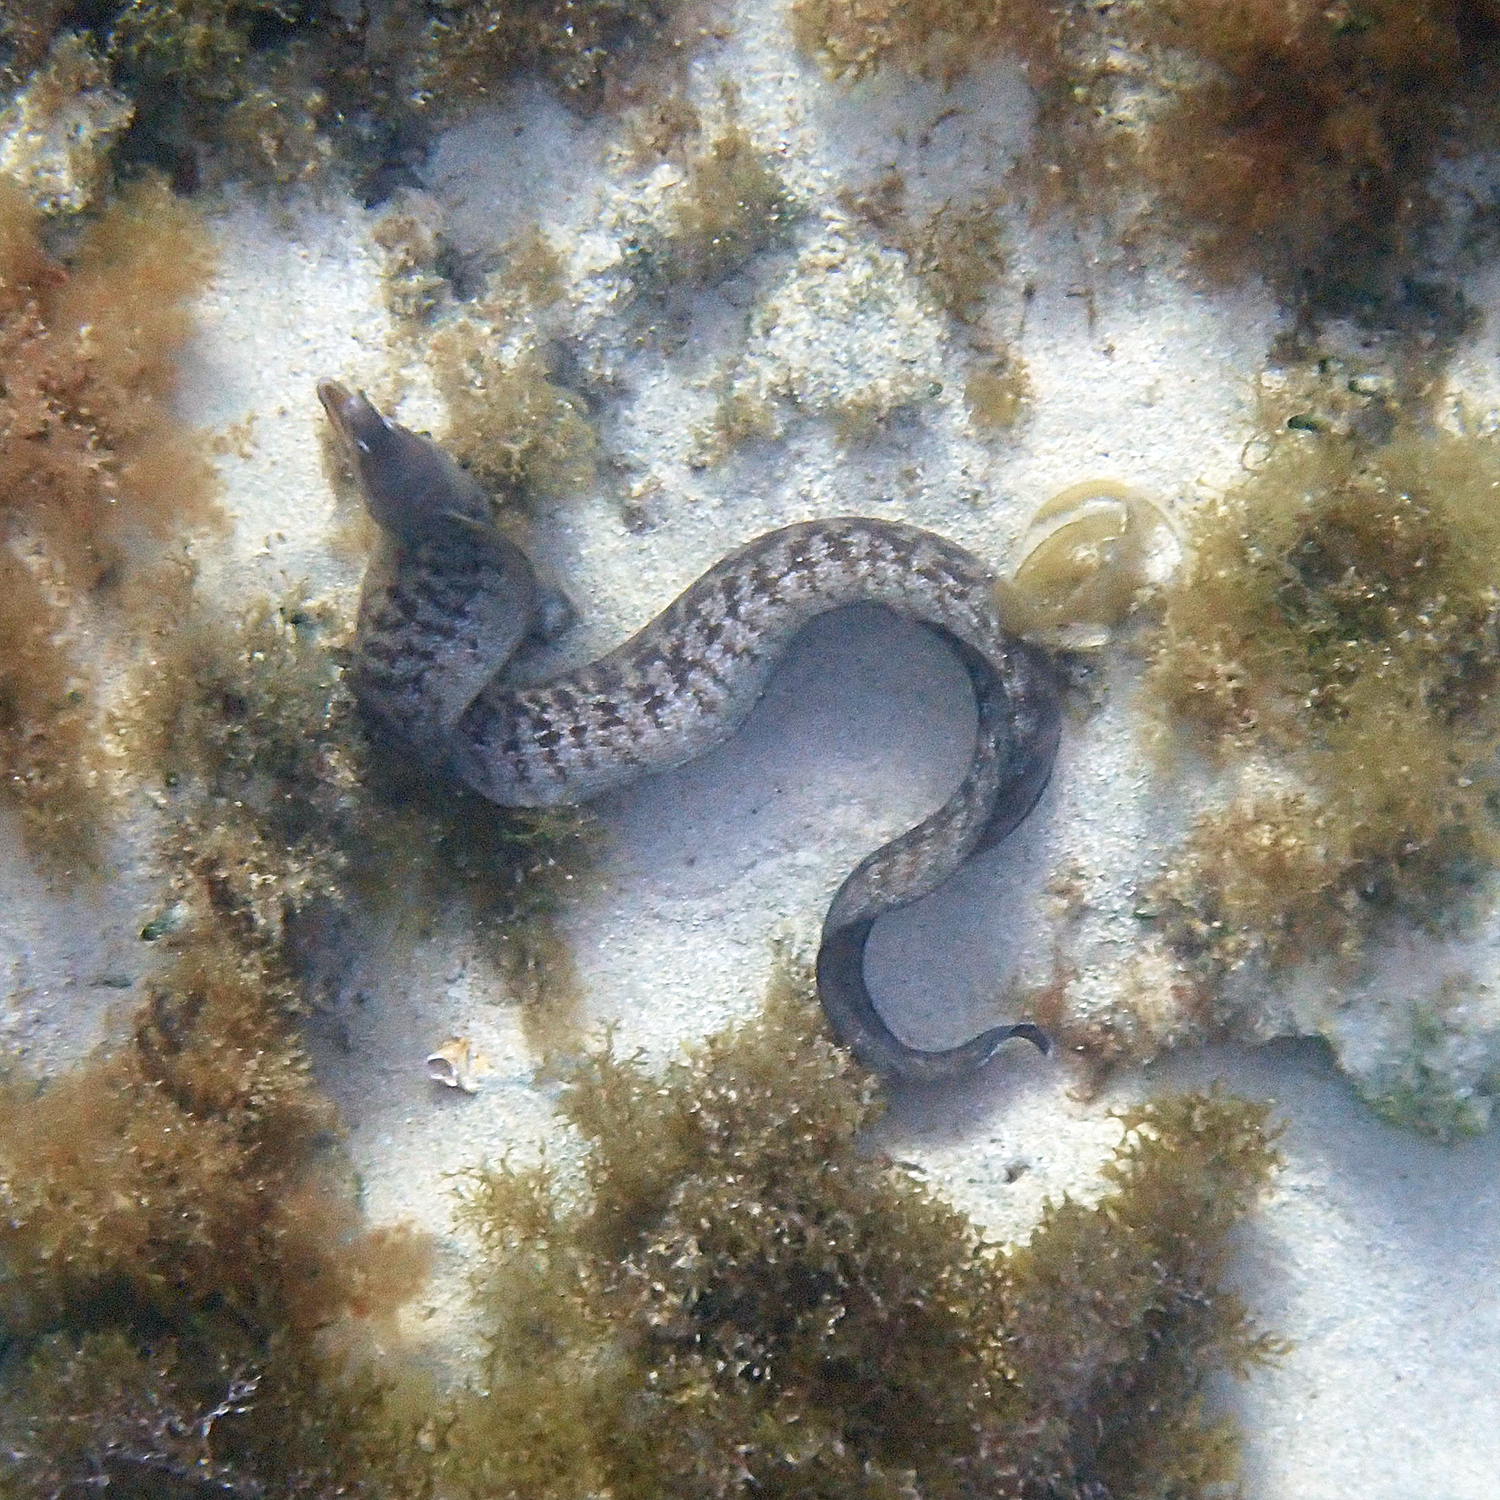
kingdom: Animalia
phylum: Chordata
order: Anguilliformes
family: Muraenidae
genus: Gymnothorax
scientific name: Gymnothorax nubilus
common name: Grey moray
